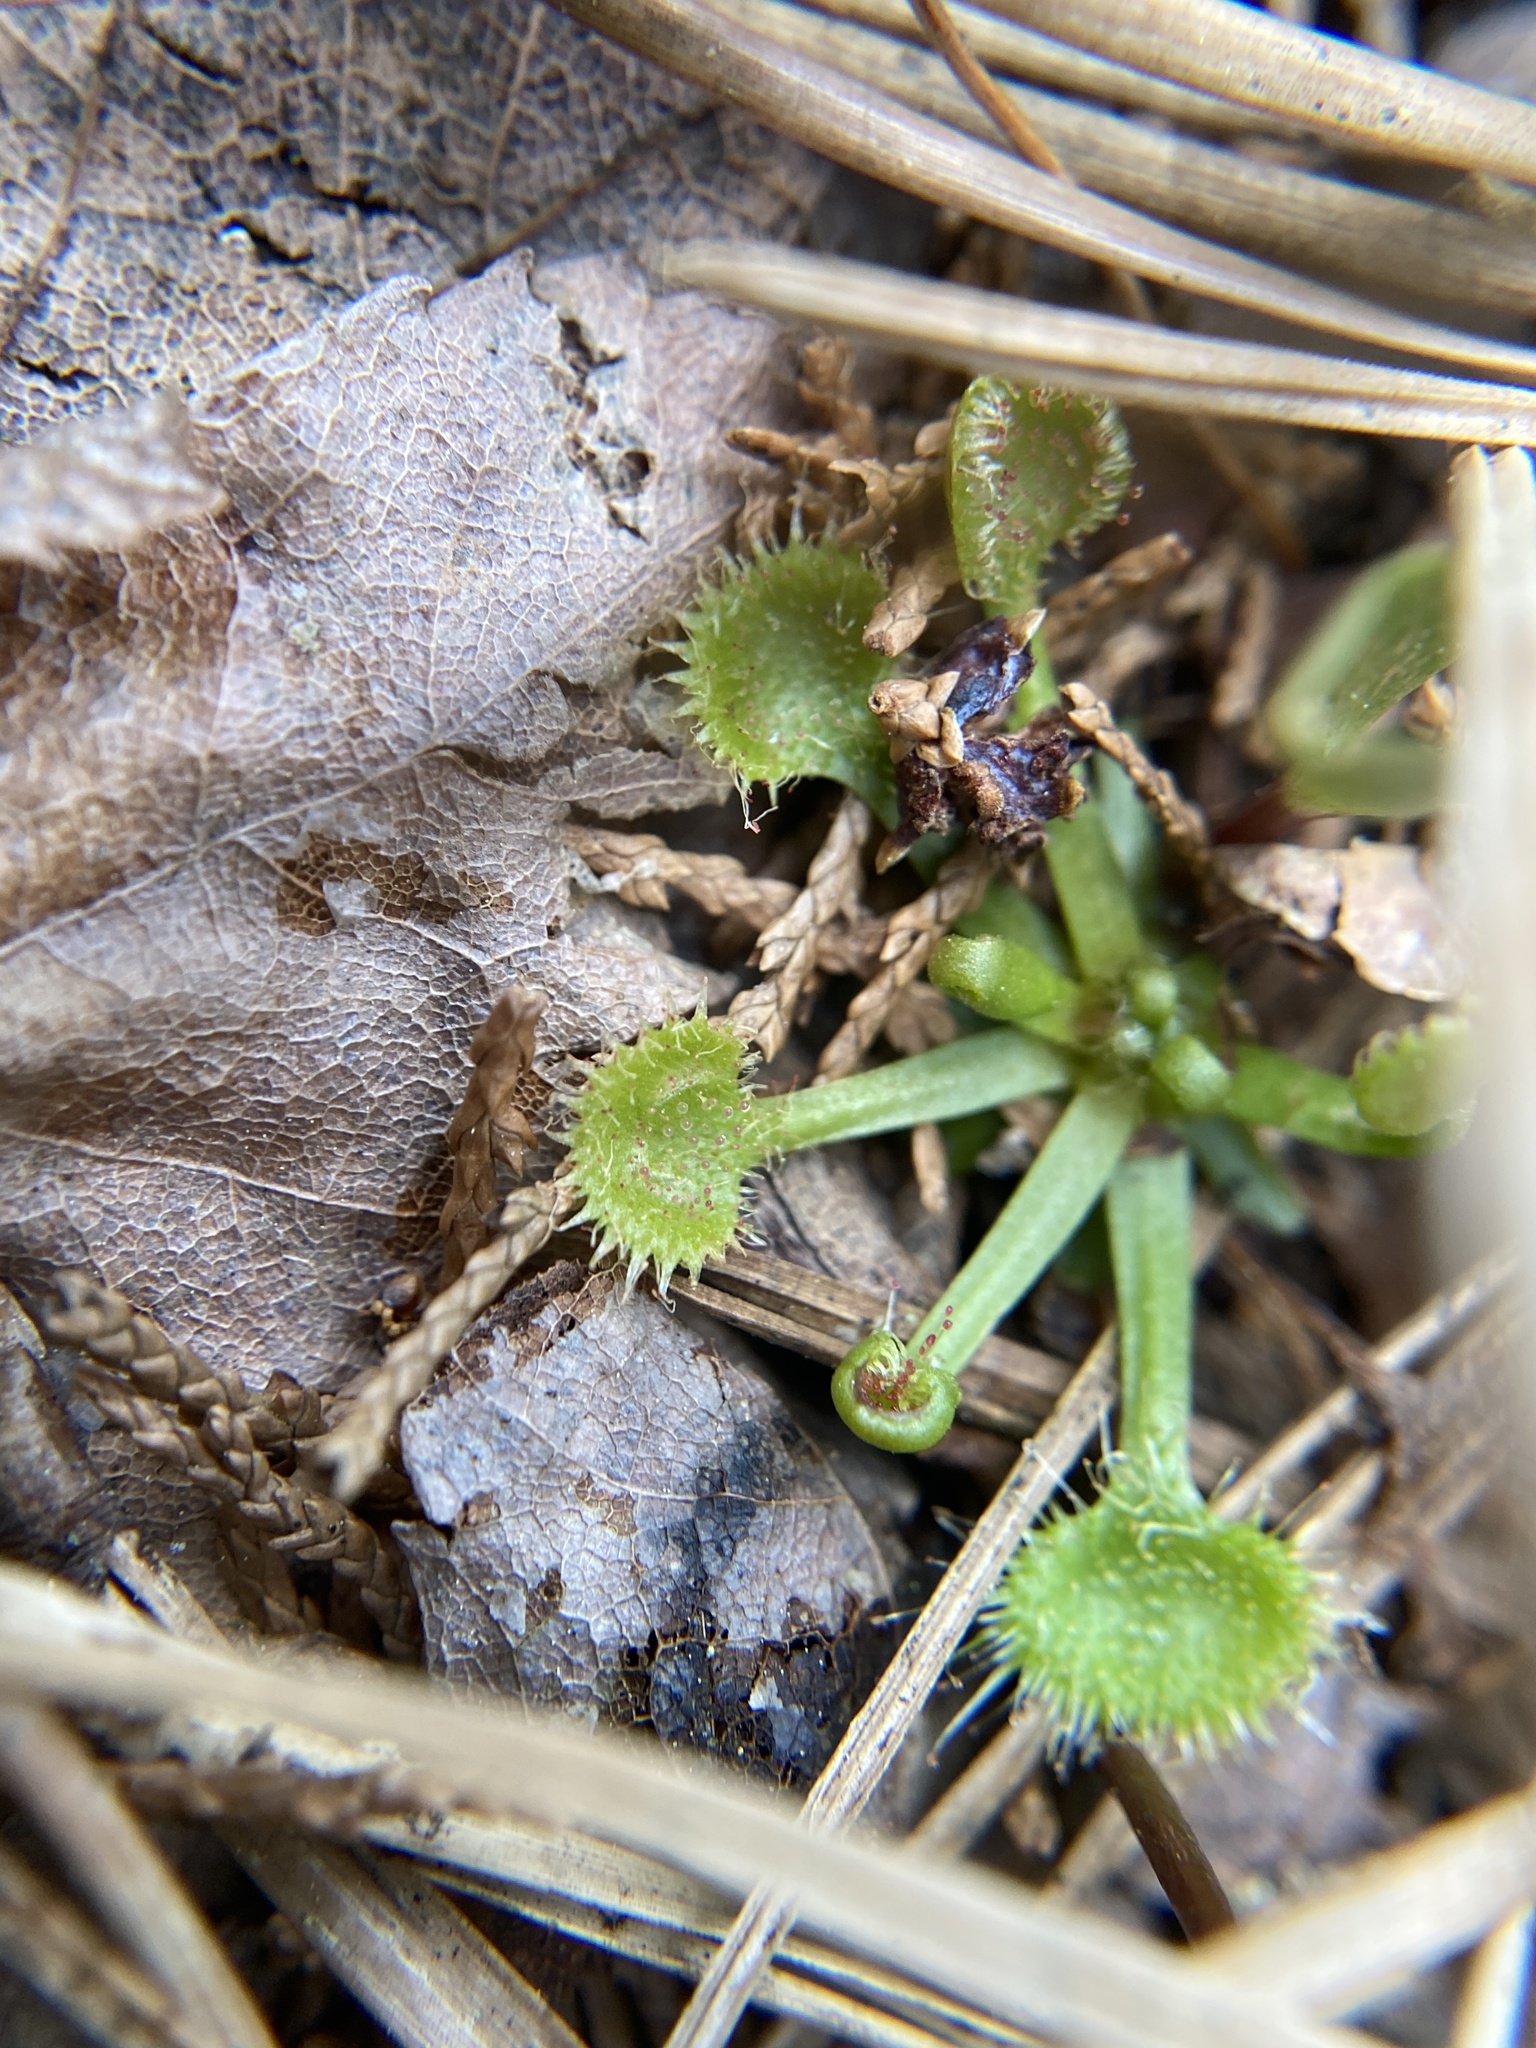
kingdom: Plantae
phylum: Tracheophyta
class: Magnoliopsida
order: Caryophyllales
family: Droseraceae
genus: Drosera
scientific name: Drosera rotundifolia
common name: Round-leaved sundew
